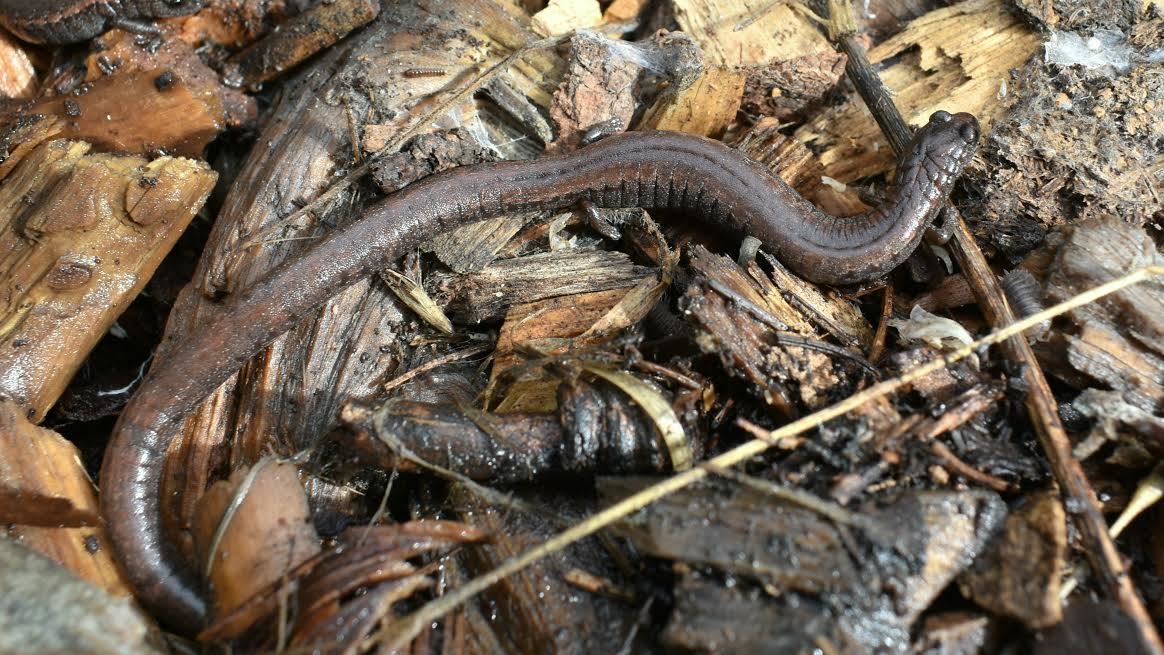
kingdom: Animalia
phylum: Chordata
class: Amphibia
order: Caudata
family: Plethodontidae
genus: Batrachoseps
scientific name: Batrachoseps attenuatus
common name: California slender salamander
